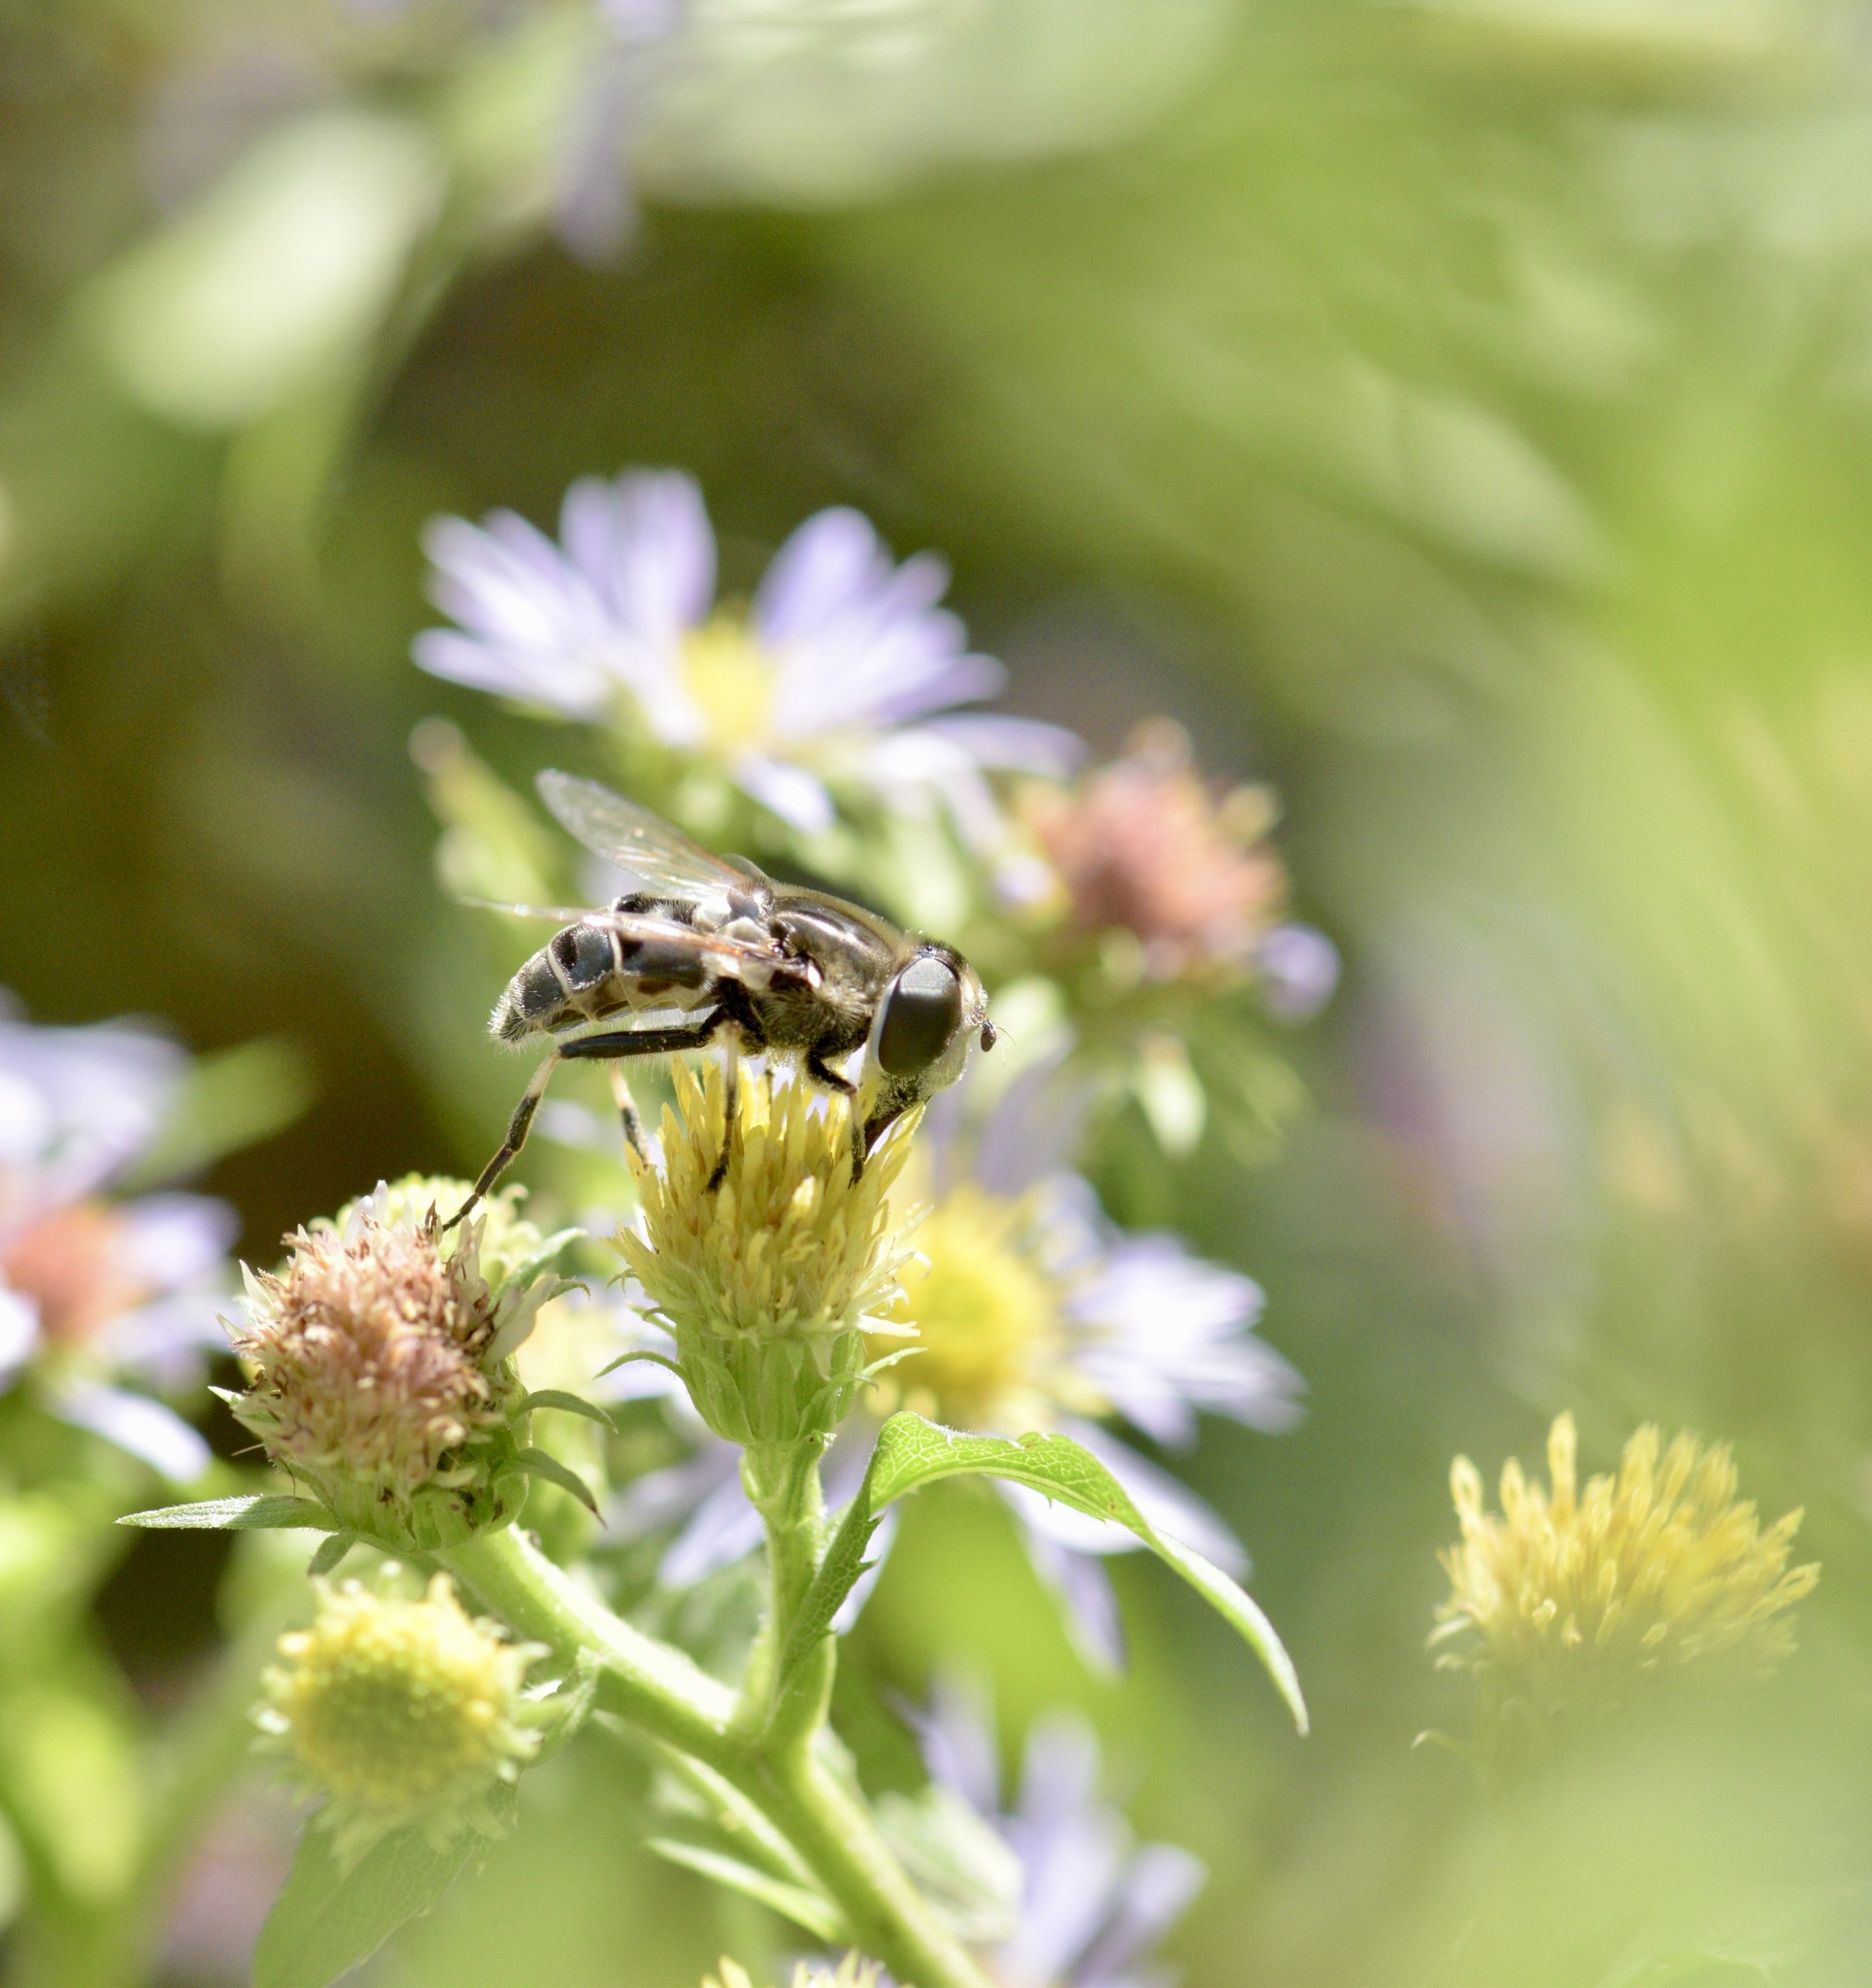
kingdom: Animalia
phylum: Arthropoda
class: Insecta
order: Diptera
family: Syrphidae
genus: Eristalis
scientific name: Eristalis dimidiata
